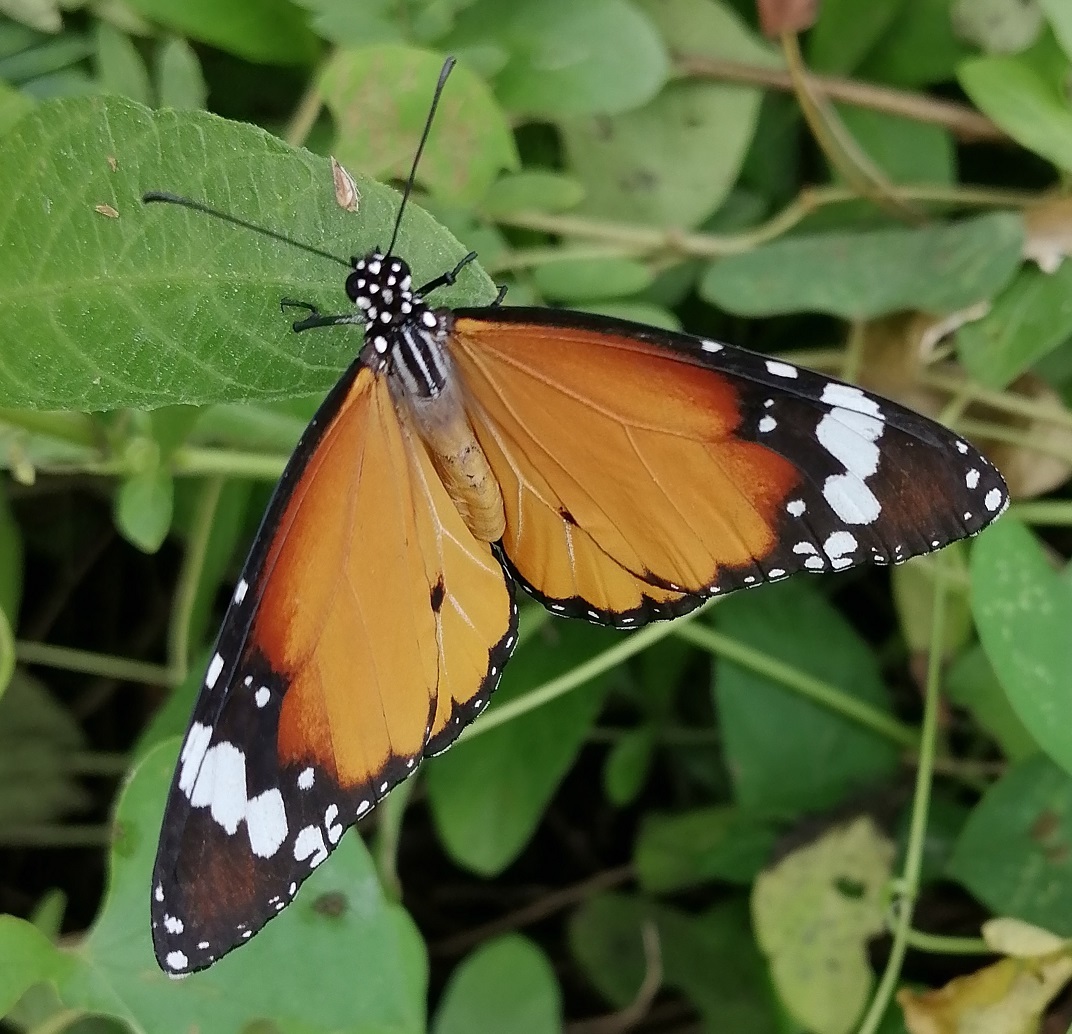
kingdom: Animalia
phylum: Arthropoda
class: Insecta
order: Lepidoptera
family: Nymphalidae
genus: Danaus
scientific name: Danaus chrysippus
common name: Plain tiger
